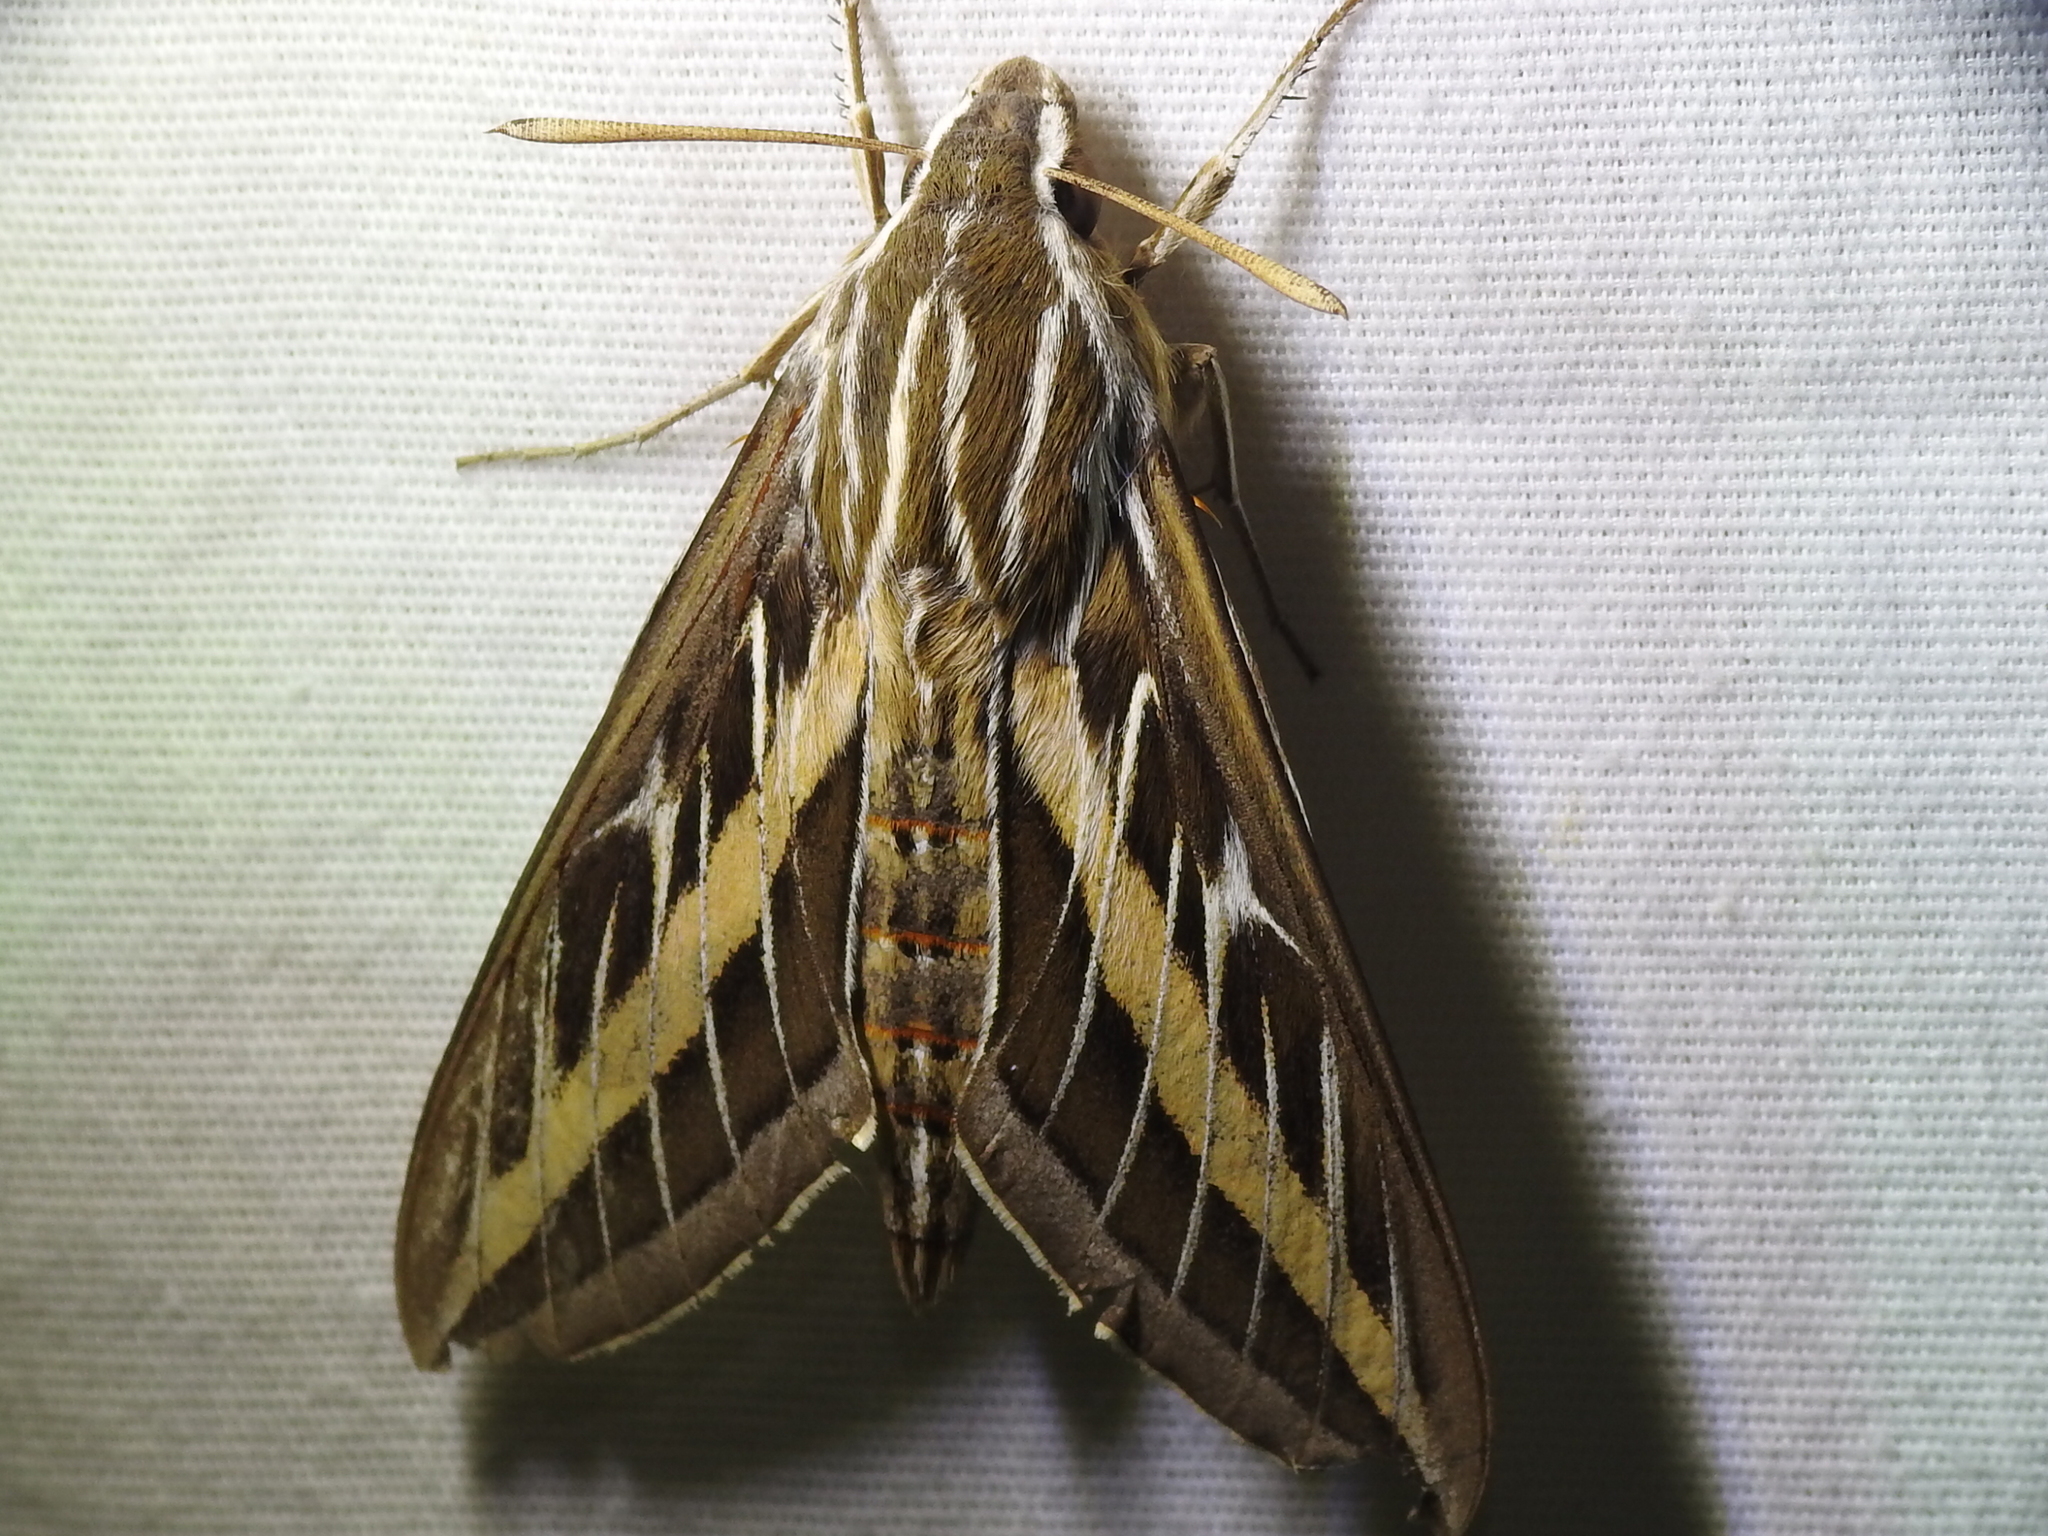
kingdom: Animalia
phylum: Arthropoda
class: Insecta
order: Lepidoptera
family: Sphingidae
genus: Hyles
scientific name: Hyles lineata
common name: White-lined sphinx
